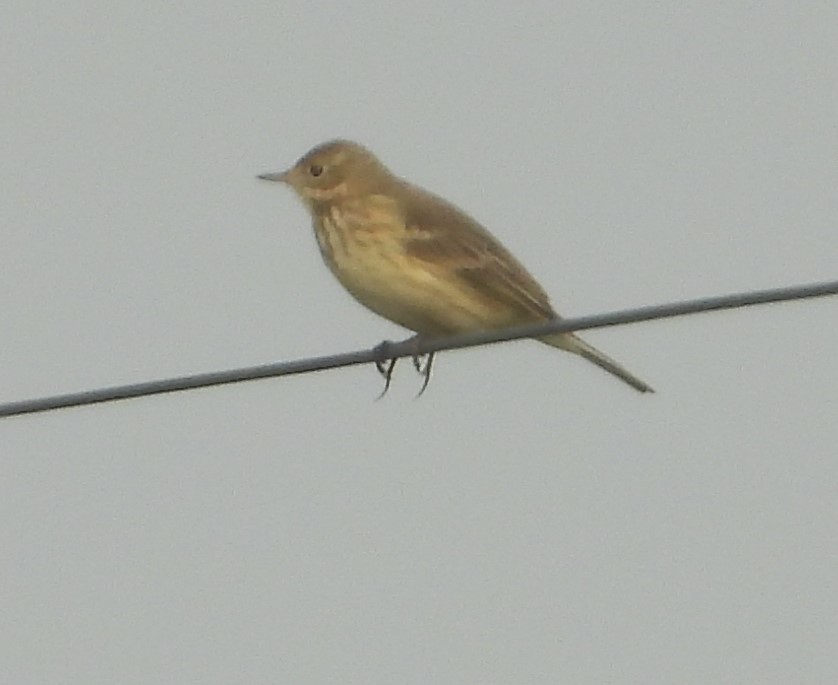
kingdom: Animalia
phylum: Chordata
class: Aves
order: Passeriformes
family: Motacillidae
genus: Anthus
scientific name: Anthus rubescens
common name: Buff-bellied pipit
